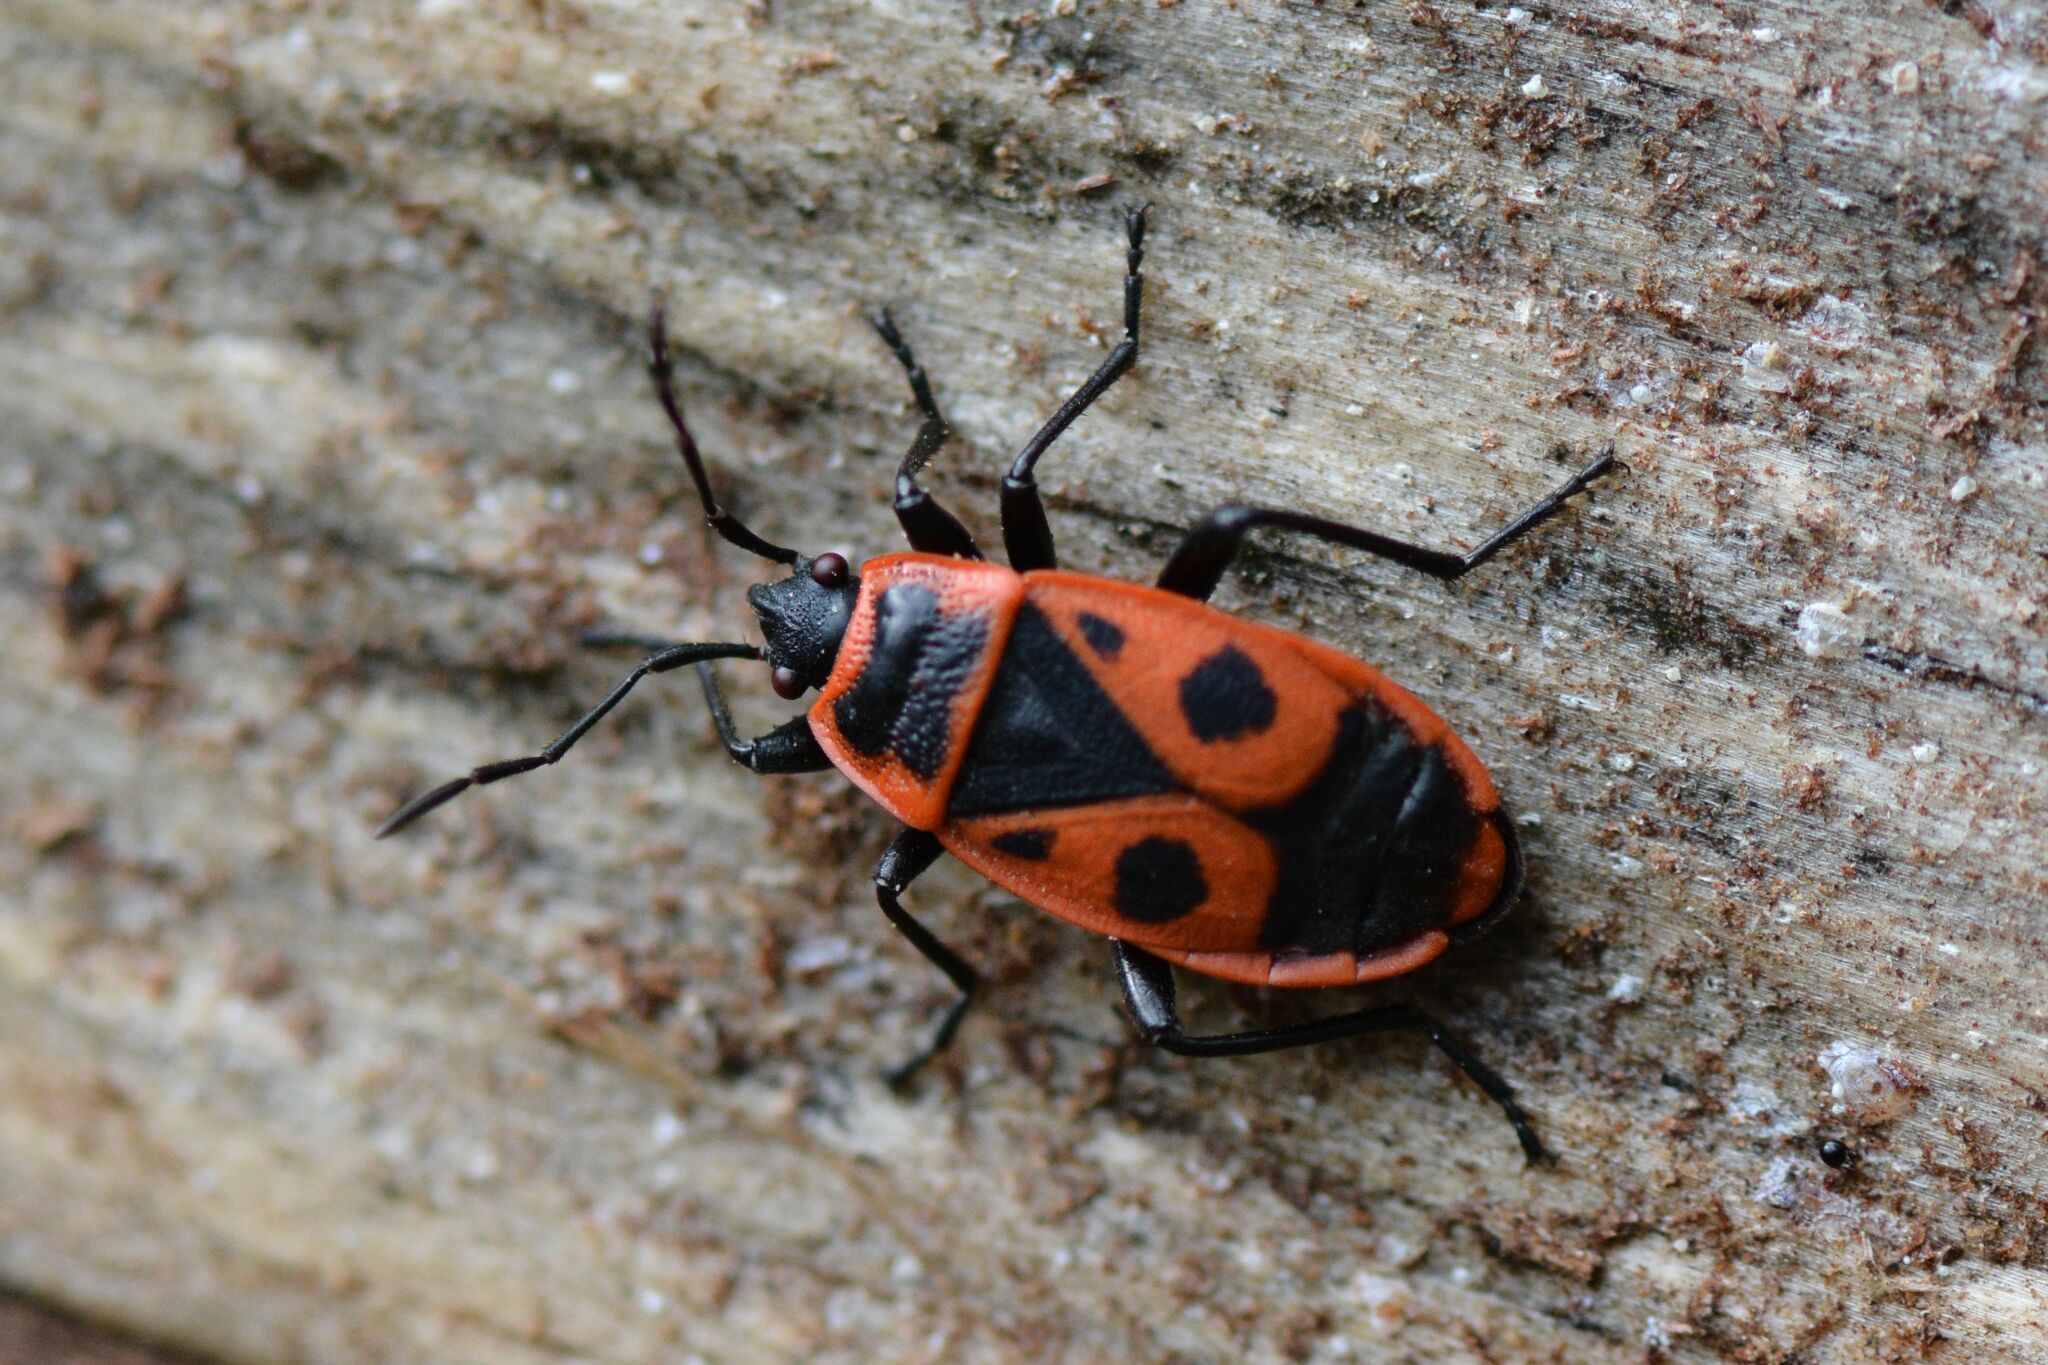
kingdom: Animalia
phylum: Arthropoda
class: Insecta
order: Hemiptera
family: Pyrrhocoridae
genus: Pyrrhocoris
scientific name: Pyrrhocoris apterus
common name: Firebug
